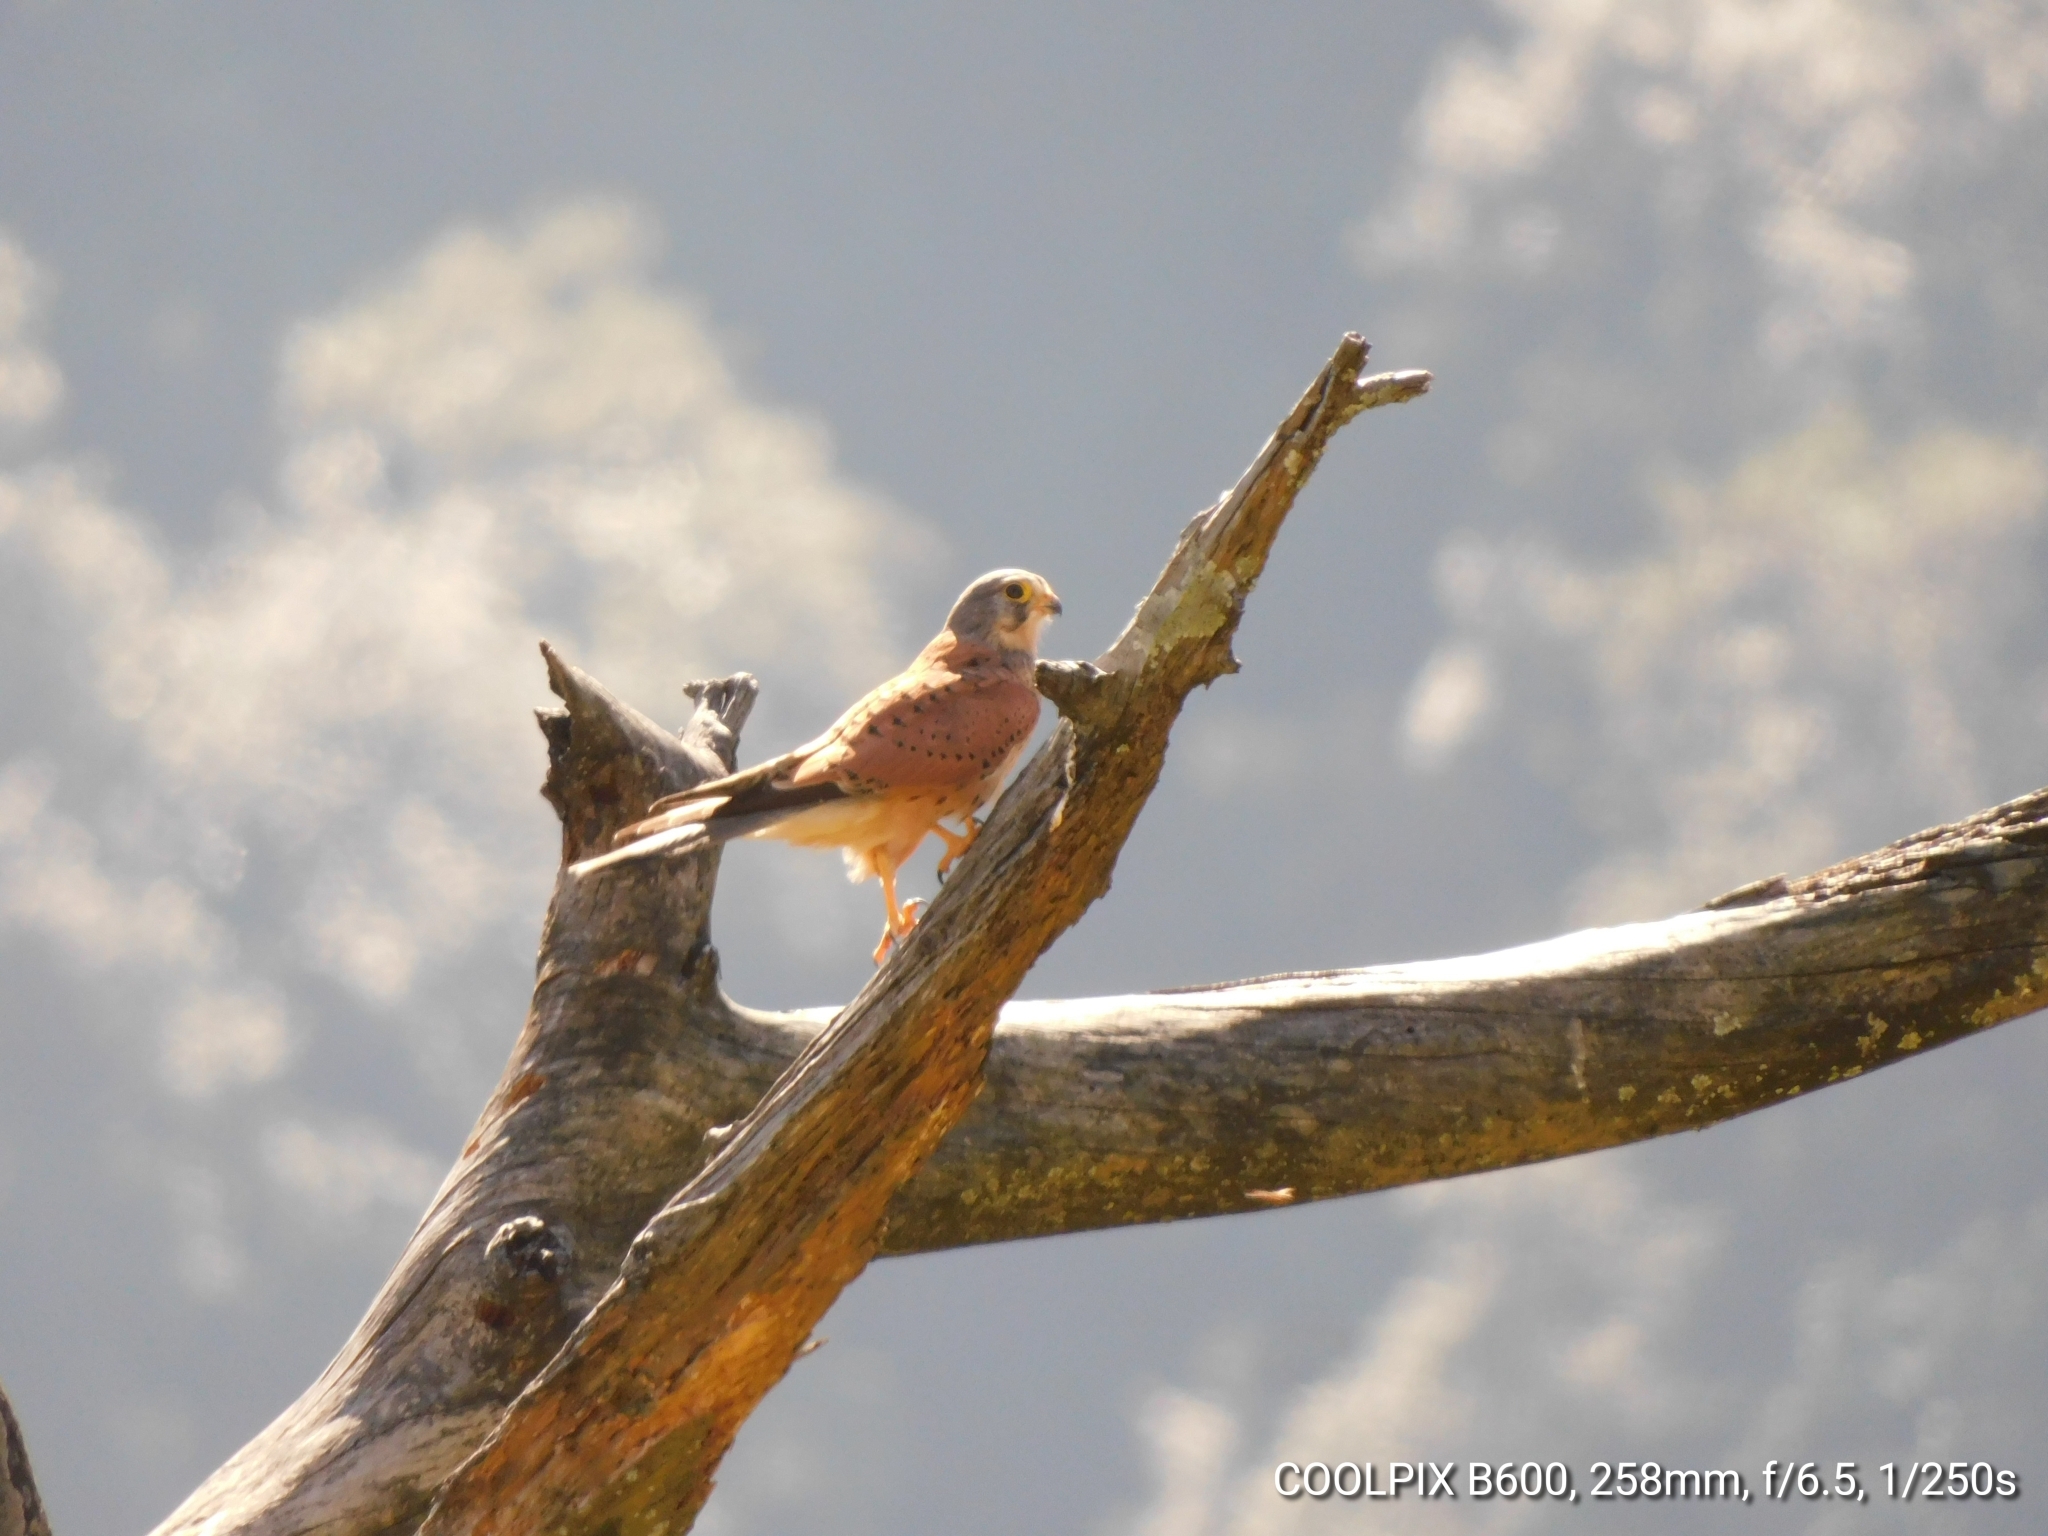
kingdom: Animalia
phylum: Chordata
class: Aves
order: Falconiformes
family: Falconidae
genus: Falco
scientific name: Falco tinnunculus
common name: Common kestrel
